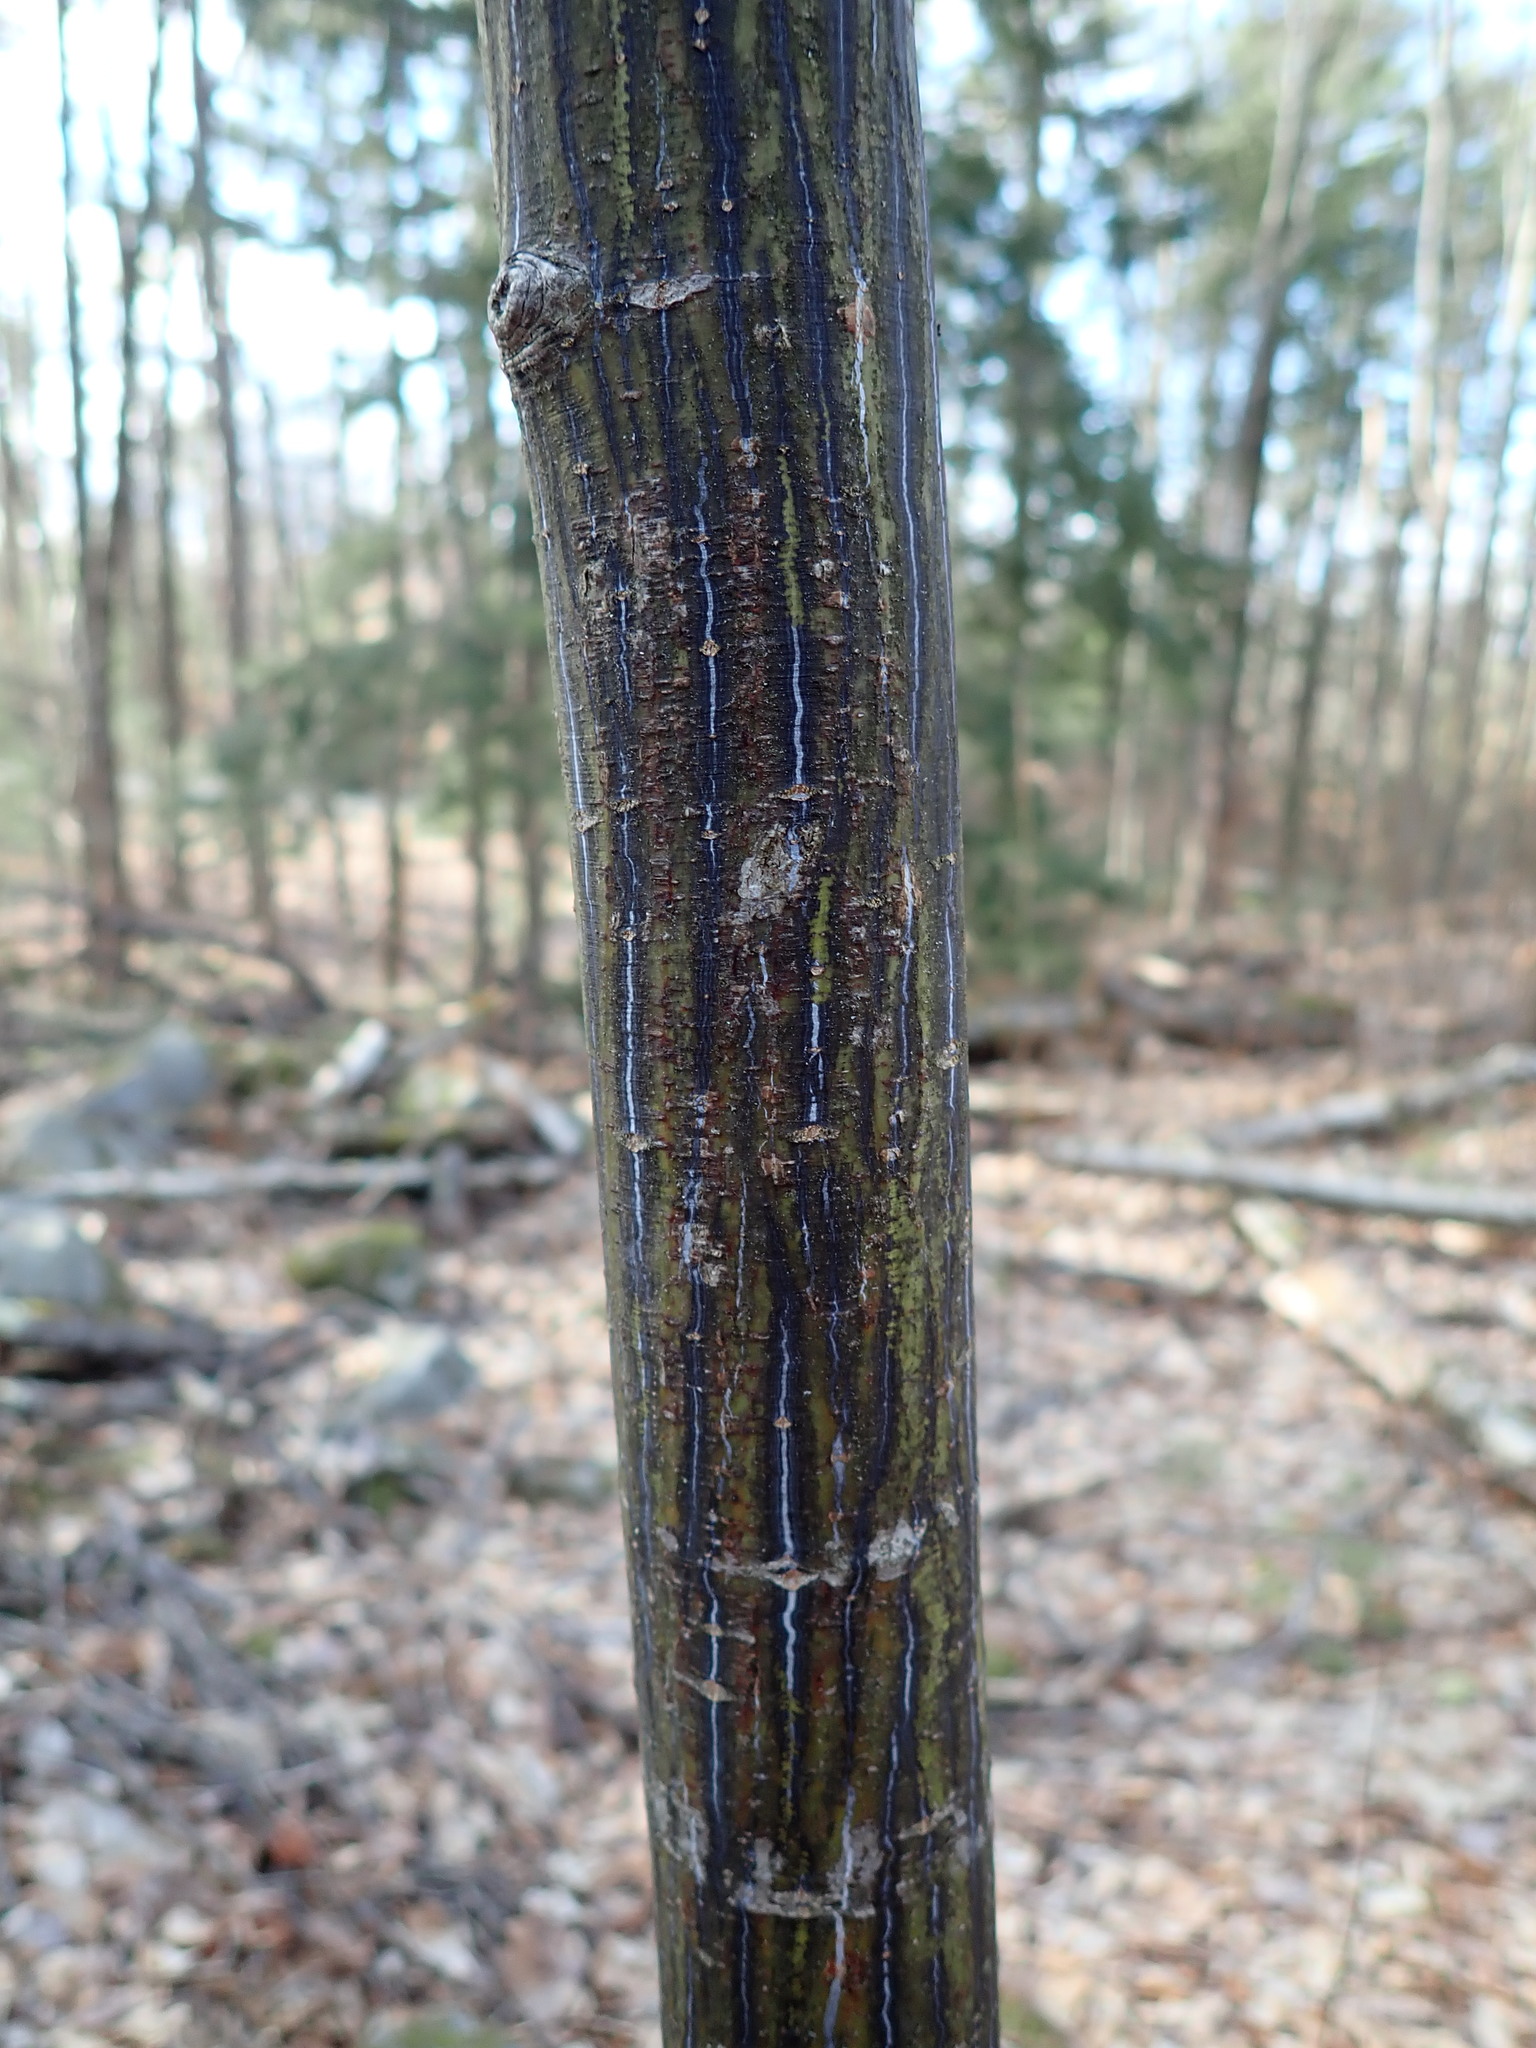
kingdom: Plantae
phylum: Tracheophyta
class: Magnoliopsida
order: Sapindales
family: Sapindaceae
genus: Acer
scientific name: Acer pensylvanicum
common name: Moosewood
